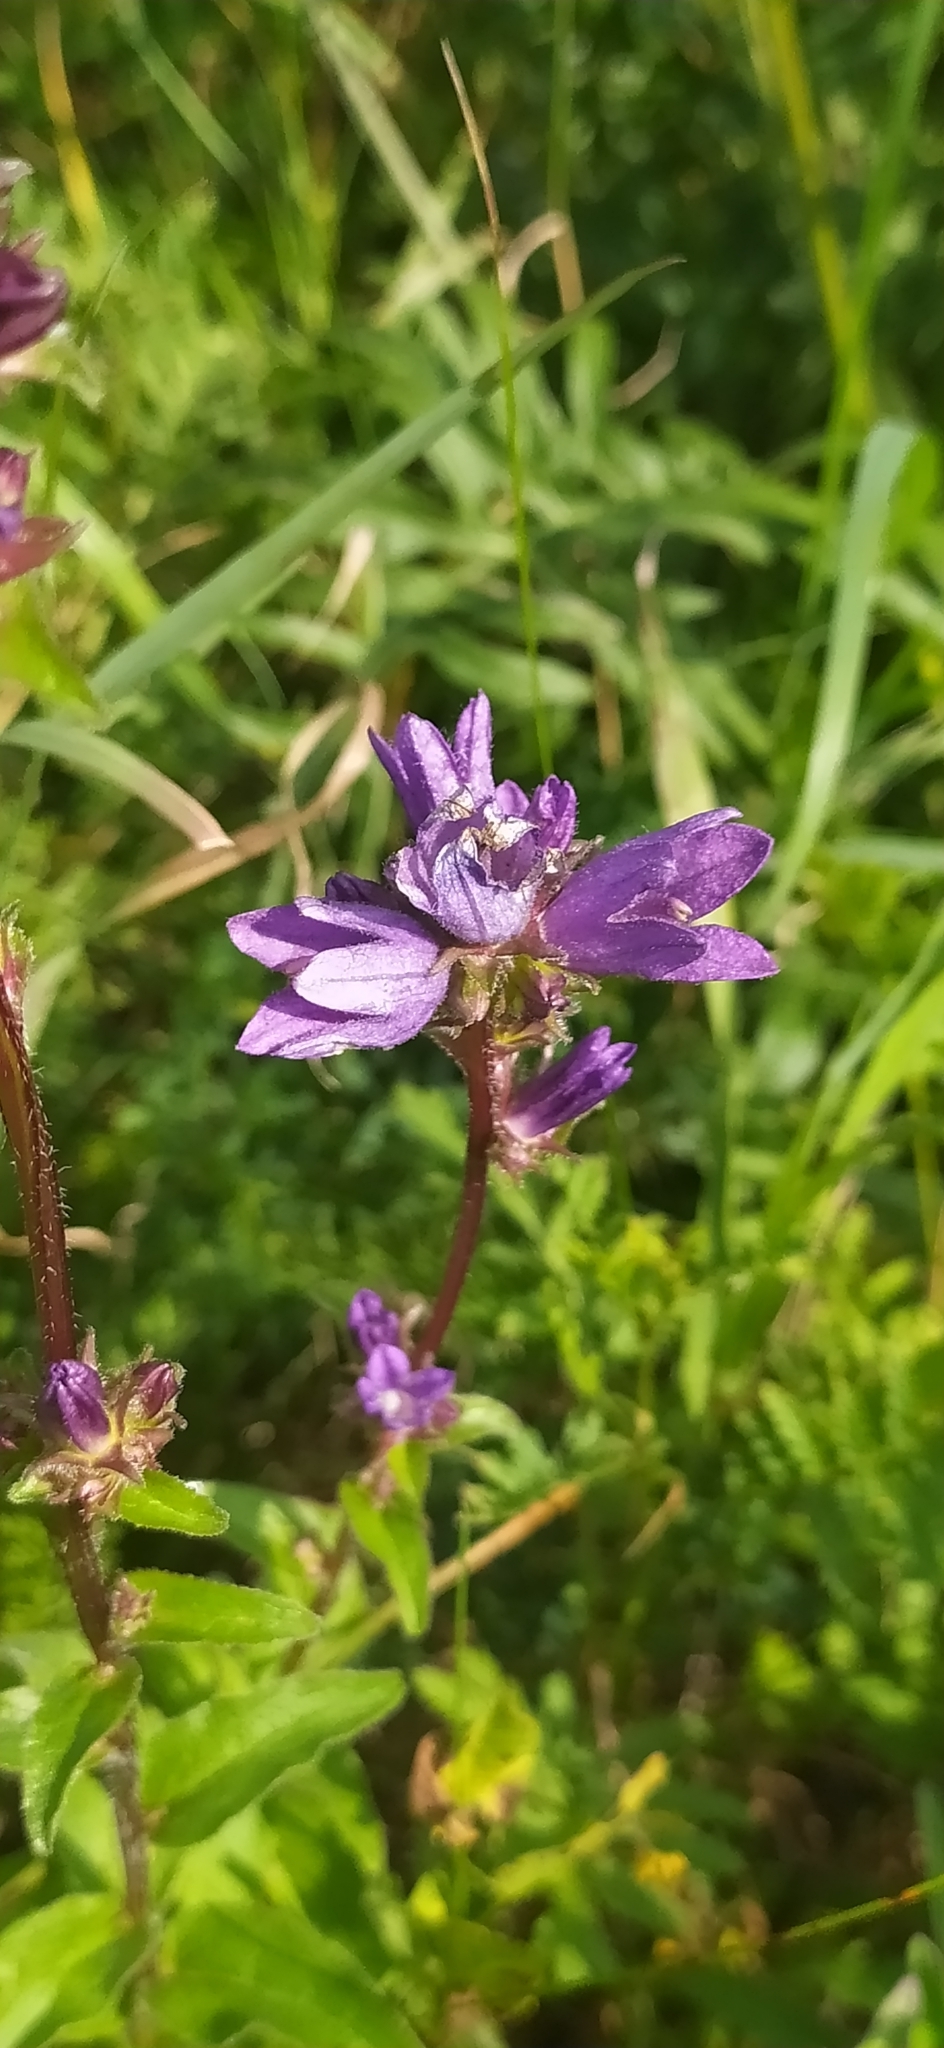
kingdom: Plantae
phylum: Tracheophyta
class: Magnoliopsida
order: Asterales
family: Campanulaceae
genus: Campanula
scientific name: Campanula glomerata
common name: Clustered bellflower
